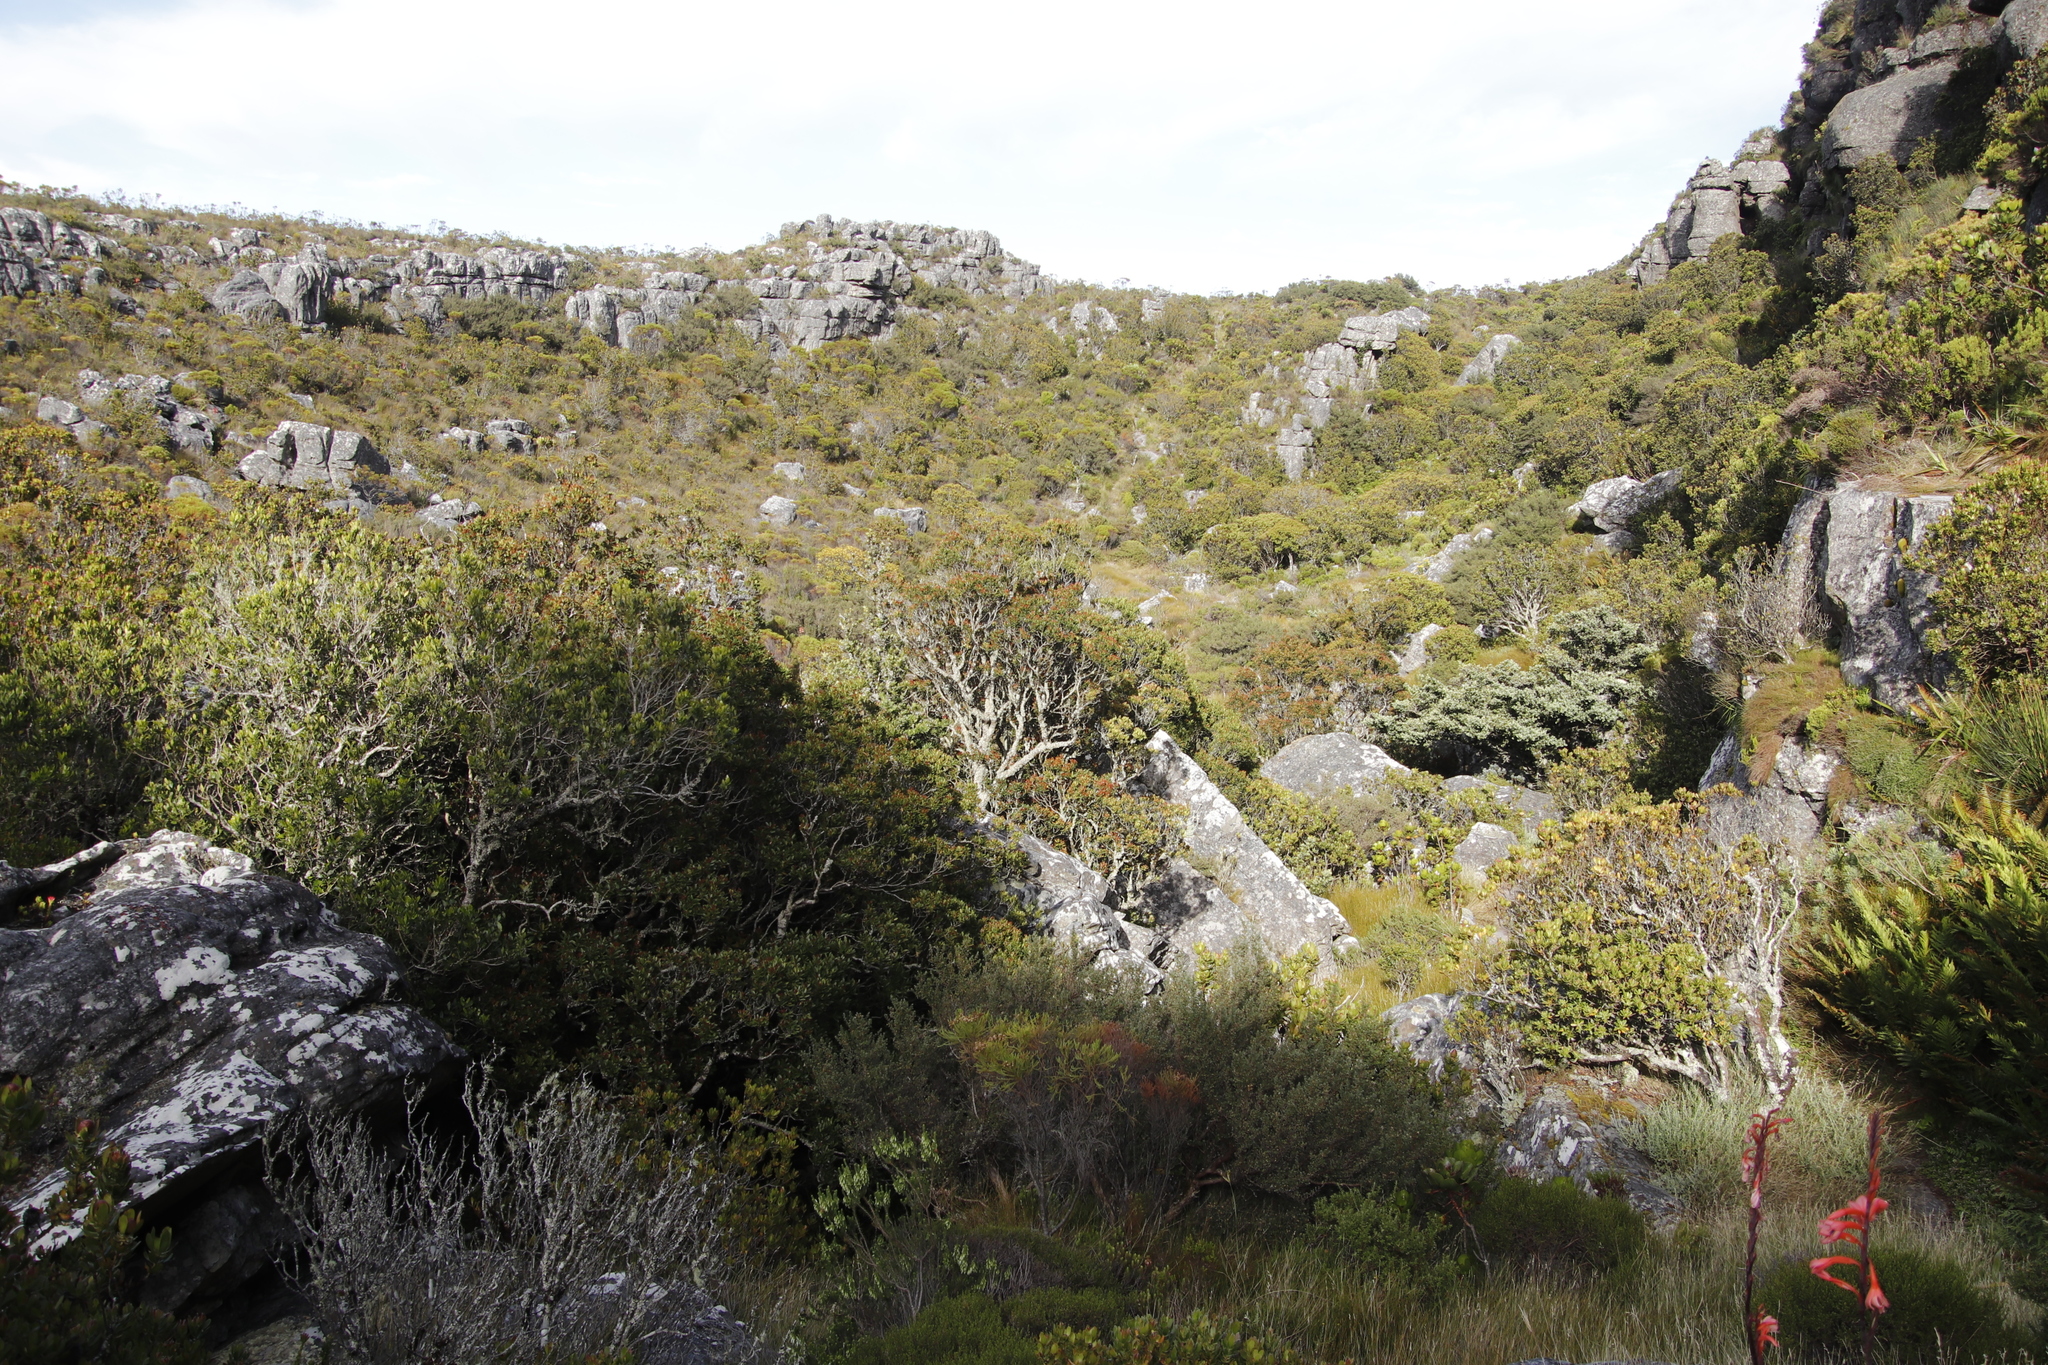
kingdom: Plantae
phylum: Tracheophyta
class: Magnoliopsida
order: Proteales
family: Proteaceae
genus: Leucadendron
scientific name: Leucadendron strobilinum
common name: Mountain rose
